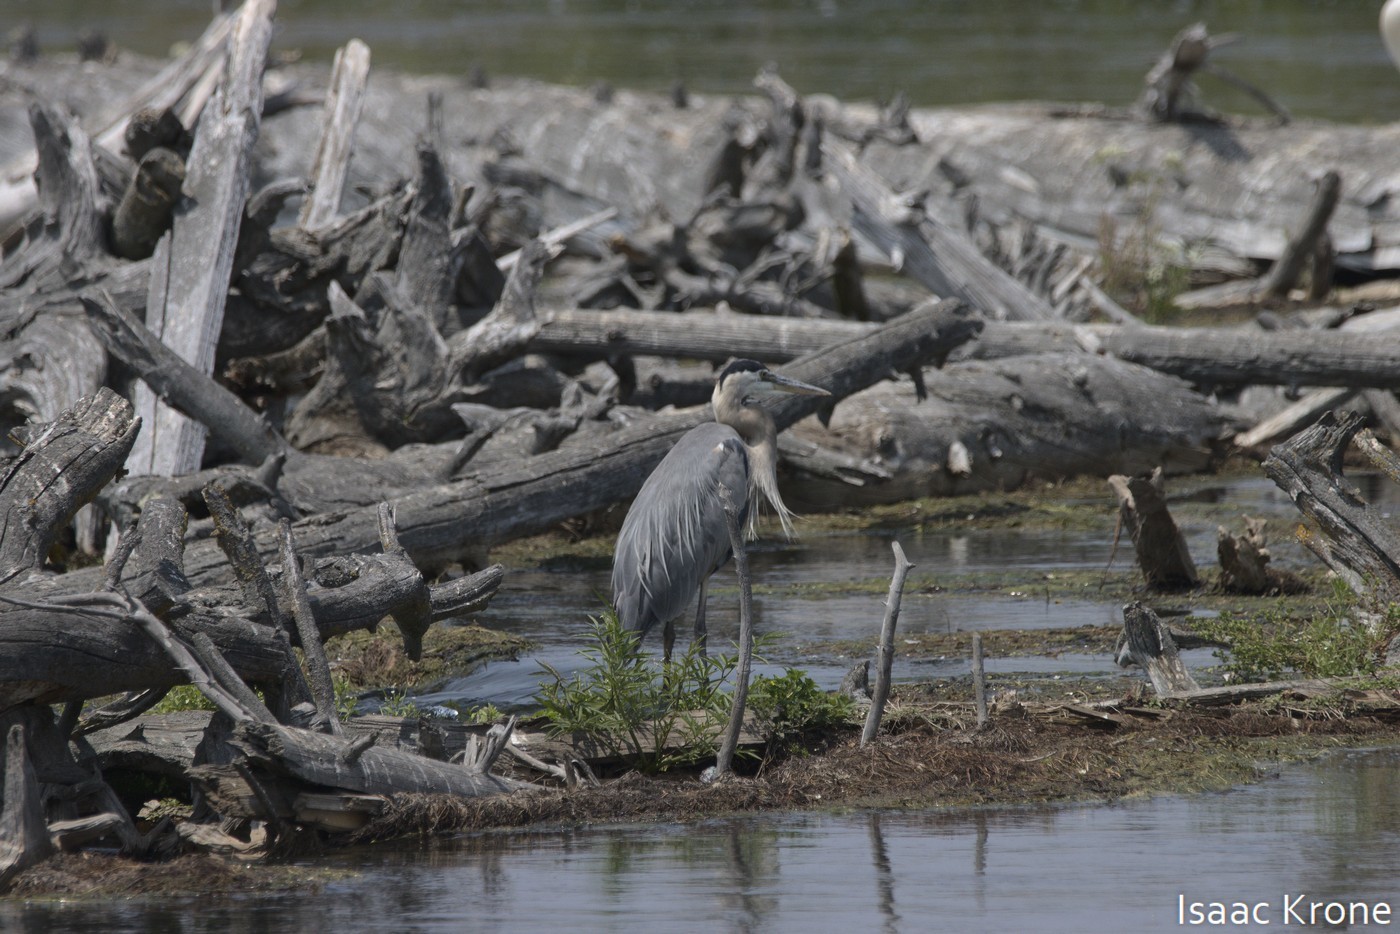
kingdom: Animalia
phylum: Chordata
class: Aves
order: Pelecaniformes
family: Ardeidae
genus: Ardea
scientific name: Ardea herodias
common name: Great blue heron
